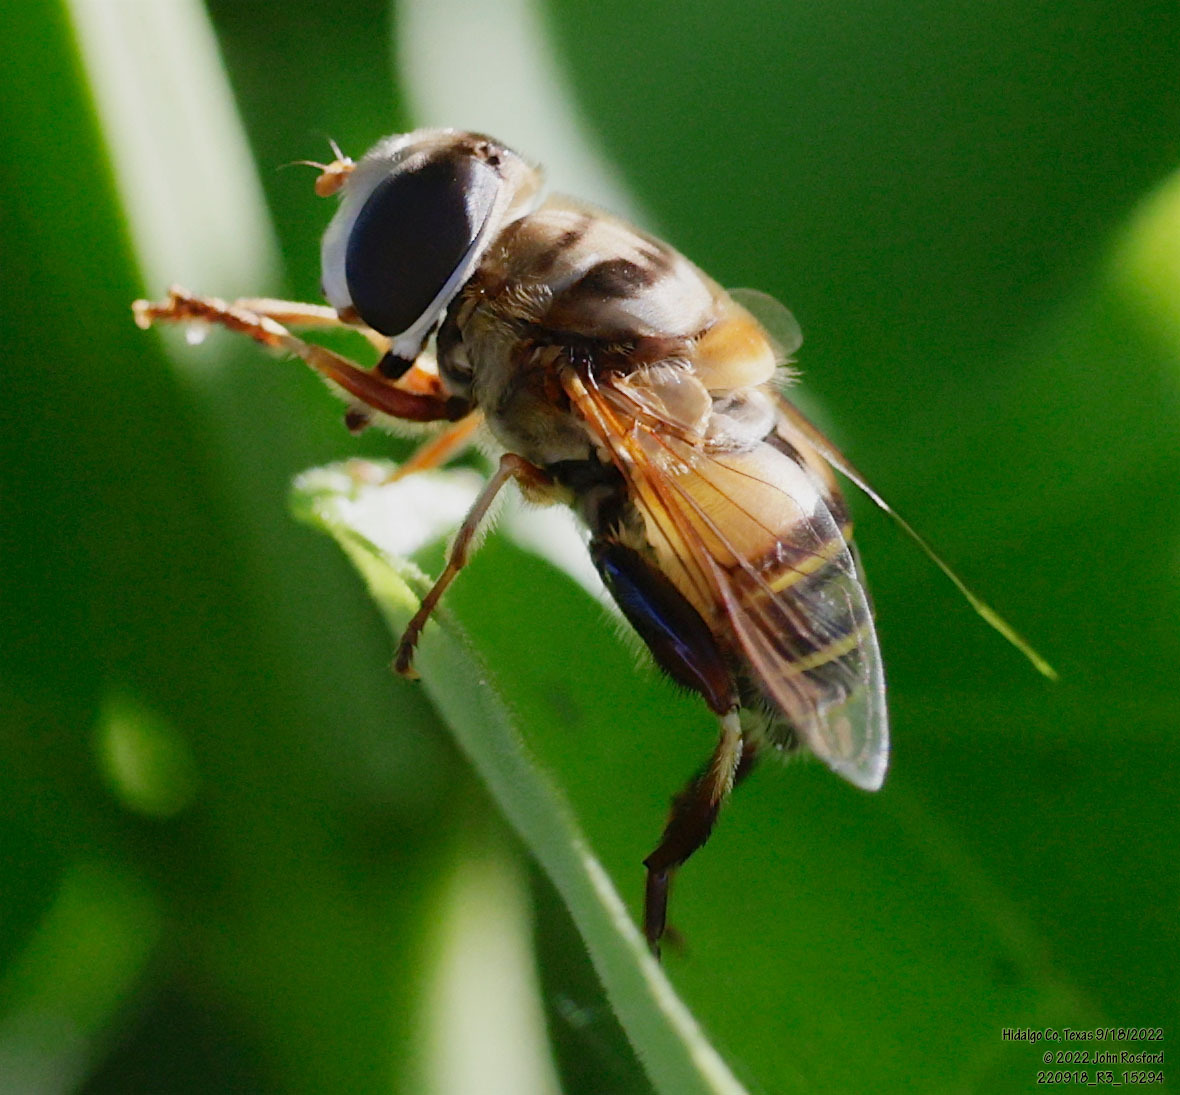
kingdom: Animalia
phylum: Arthropoda
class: Insecta
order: Diptera
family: Syrphidae
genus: Palpada
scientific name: Palpada vinetorum
